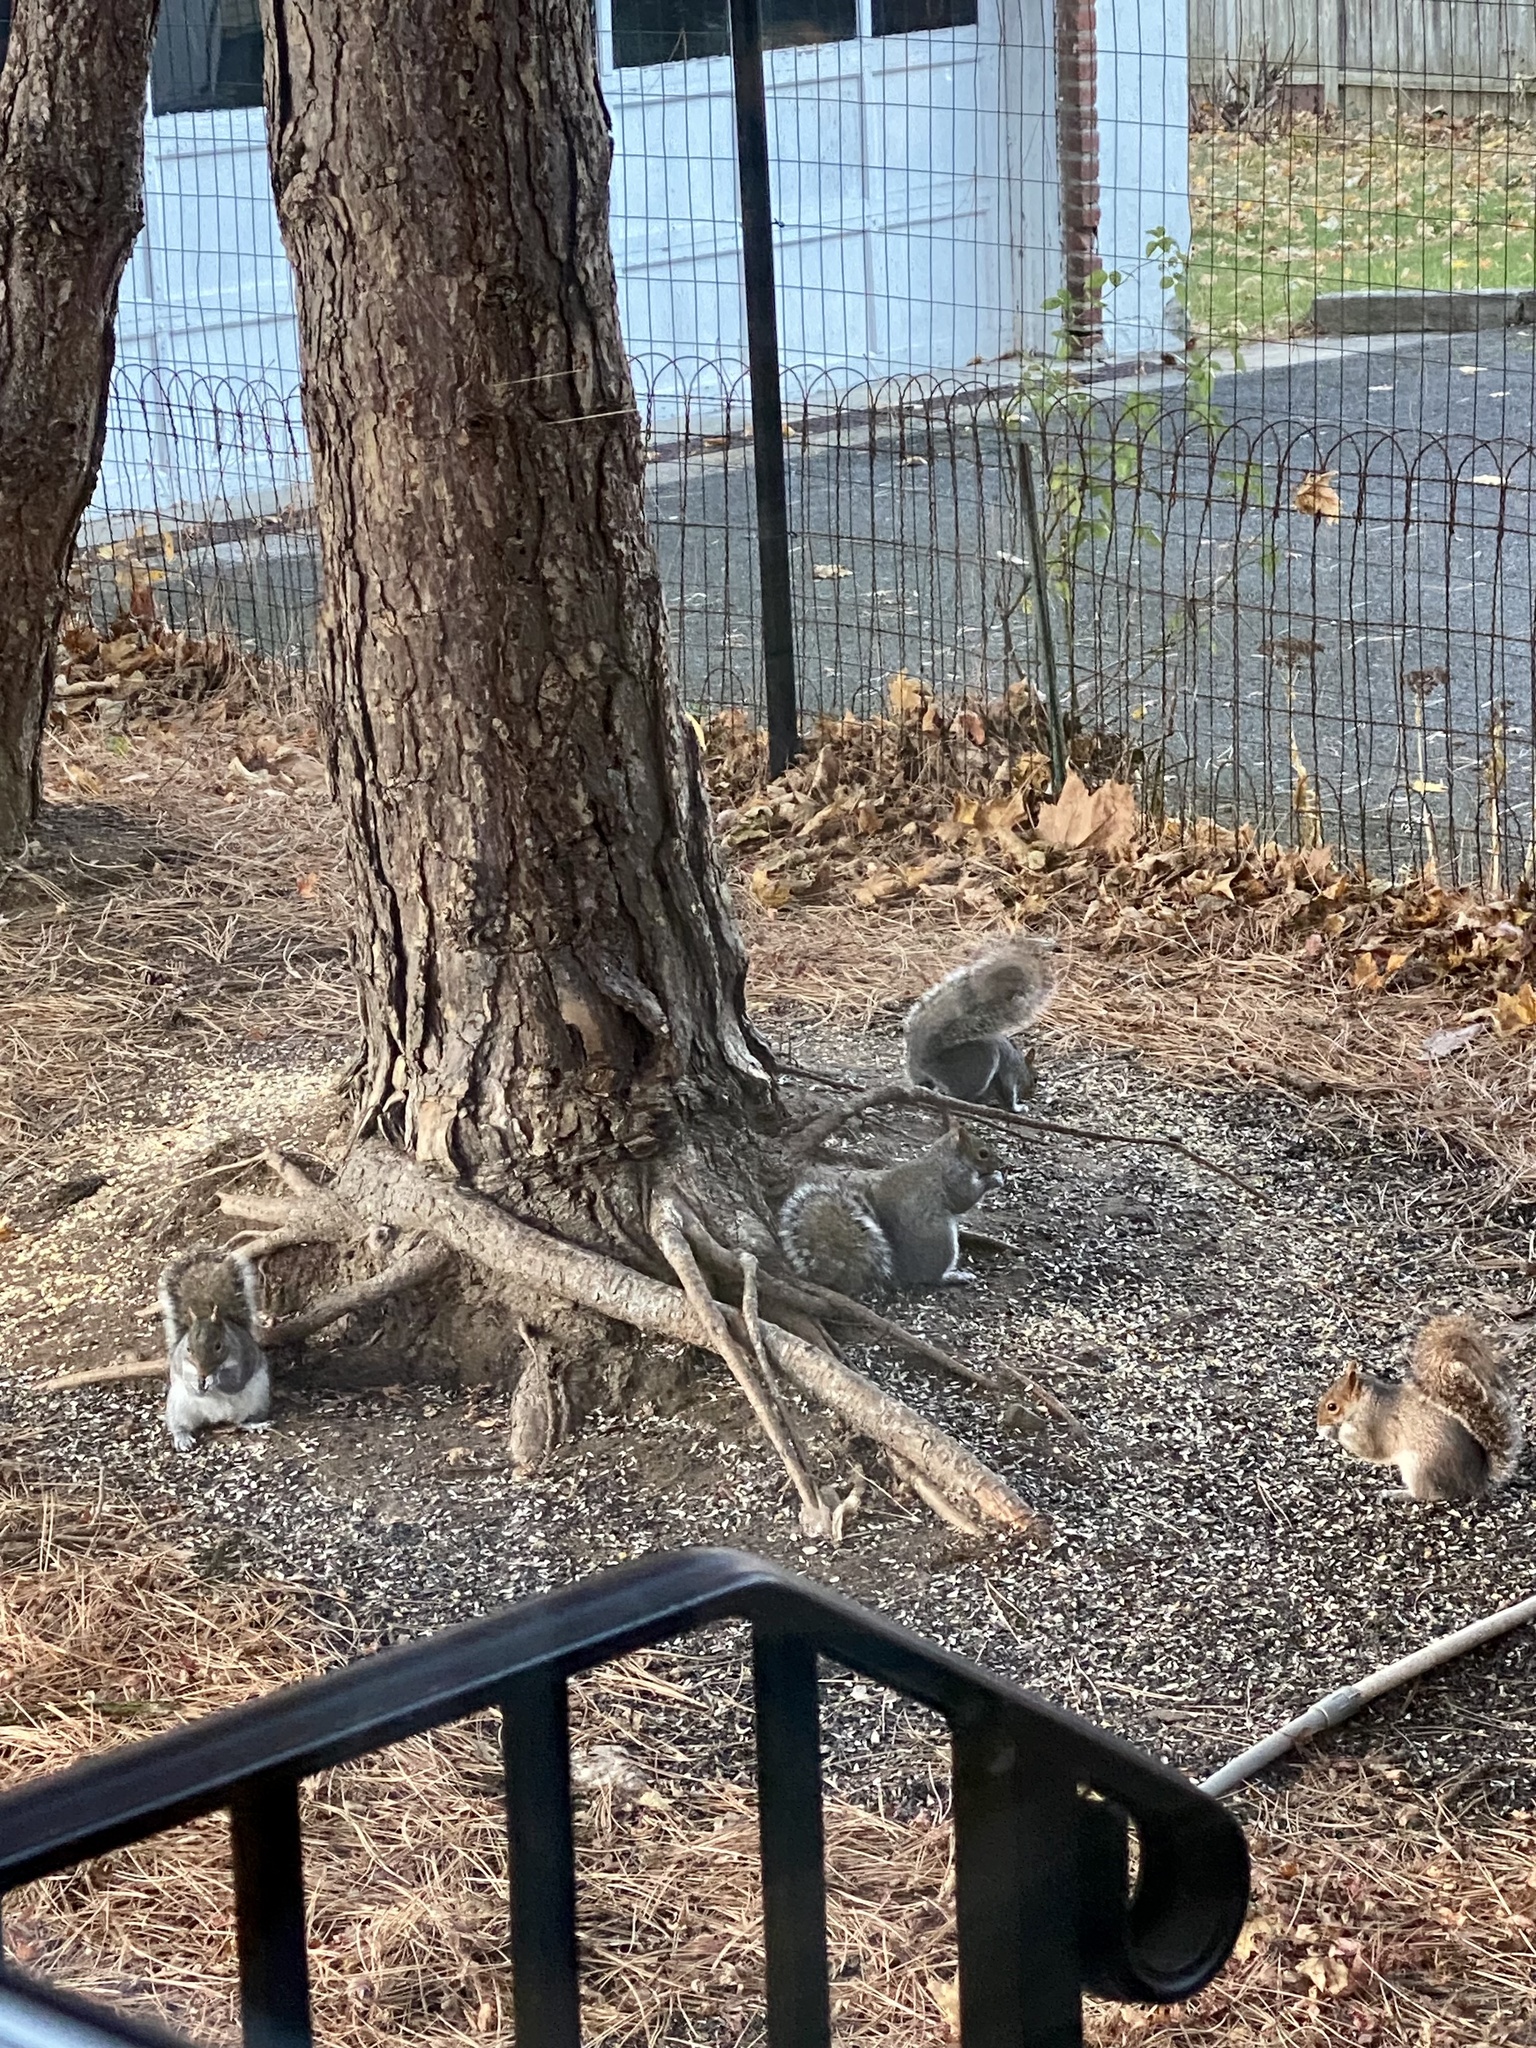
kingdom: Animalia
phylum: Chordata
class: Mammalia
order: Rodentia
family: Sciuridae
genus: Sciurus
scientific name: Sciurus carolinensis
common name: Eastern gray squirrel
